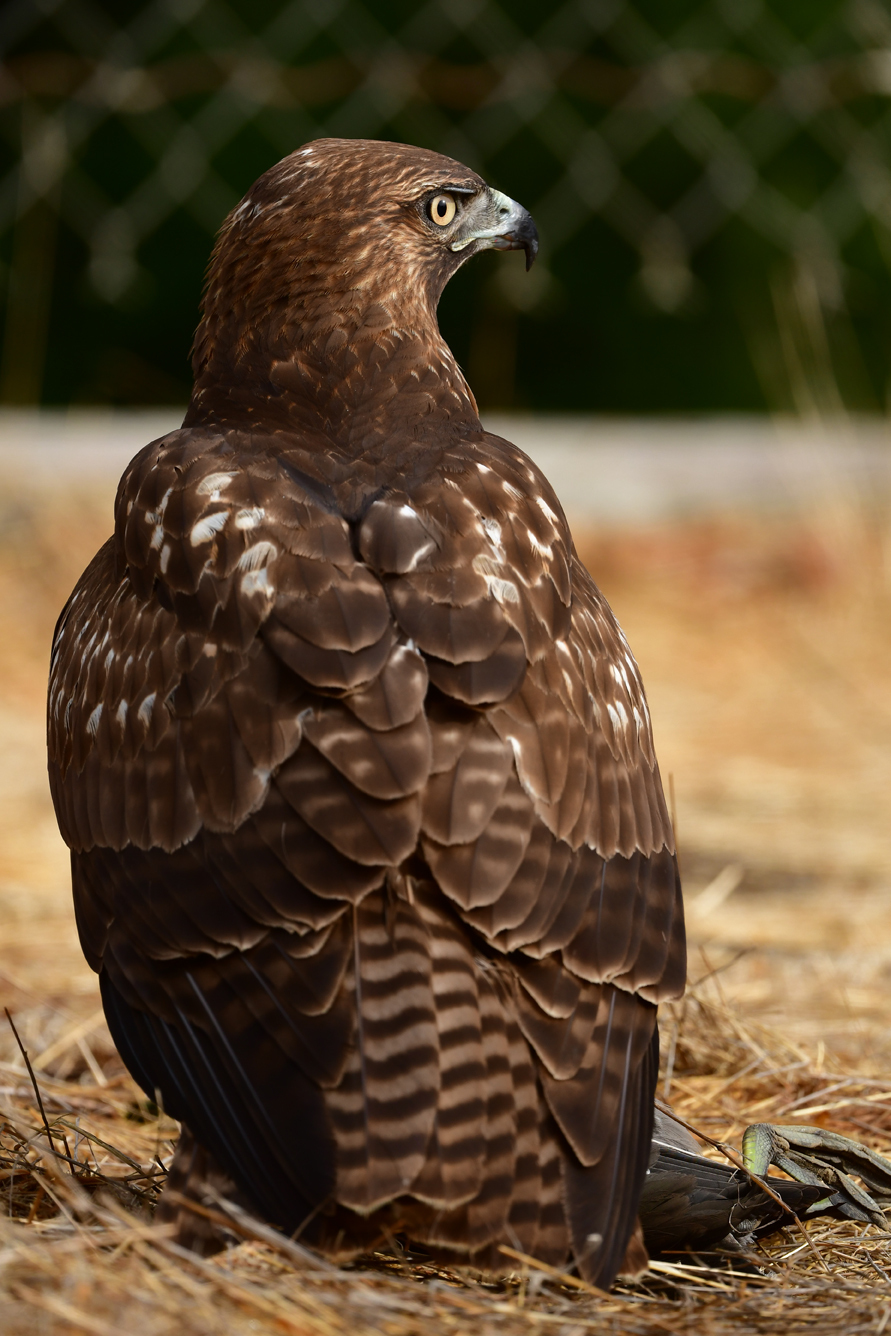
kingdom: Animalia
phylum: Chordata
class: Aves
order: Accipitriformes
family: Accipitridae
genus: Buteo
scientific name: Buteo jamaicensis
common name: Red-tailed hawk
